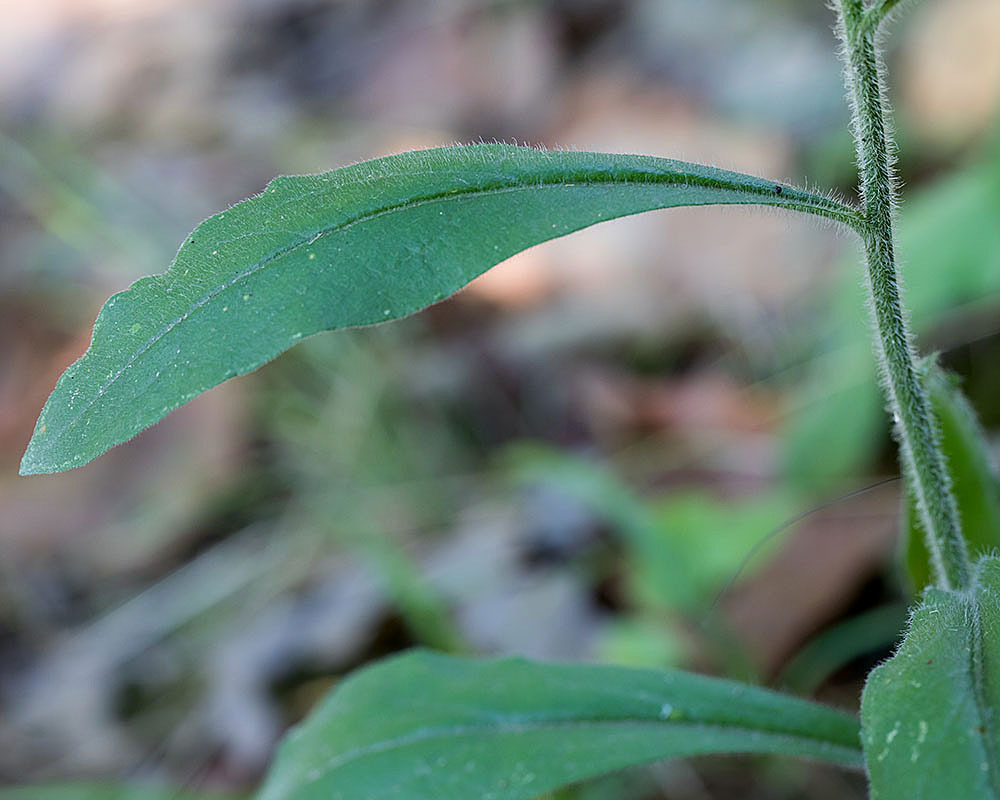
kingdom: Plantae
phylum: Tracheophyta
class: Magnoliopsida
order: Asterales
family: Asteraceae
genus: Solidago
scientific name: Solidago bicolor
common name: Silverrod
